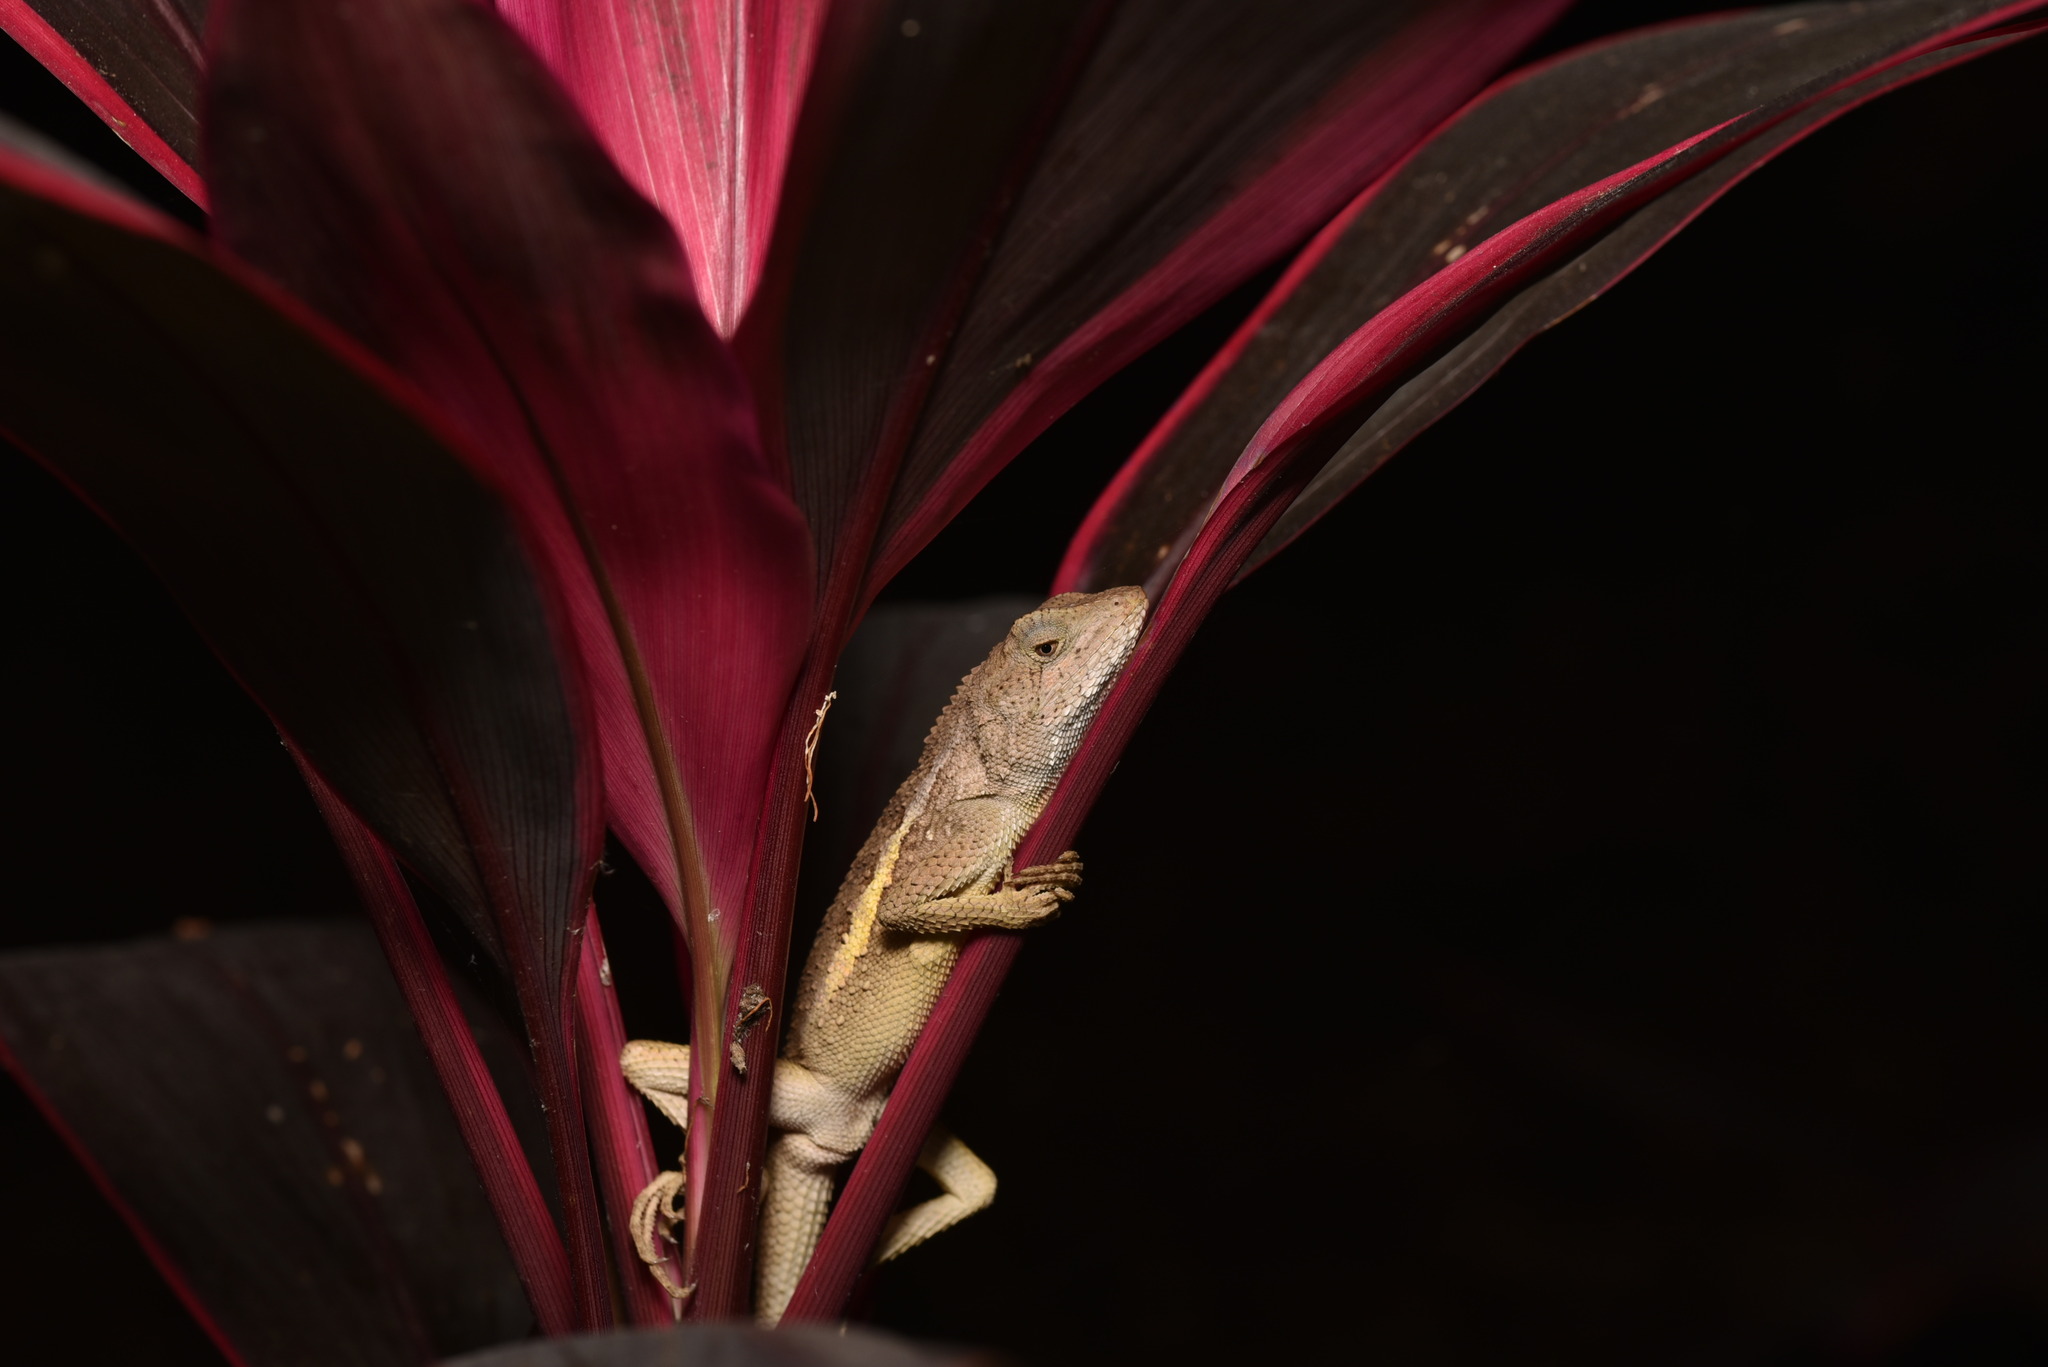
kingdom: Animalia
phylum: Chordata
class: Squamata
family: Agamidae
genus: Diploderma
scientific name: Diploderma swinhonis
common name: Taiwan japalure
